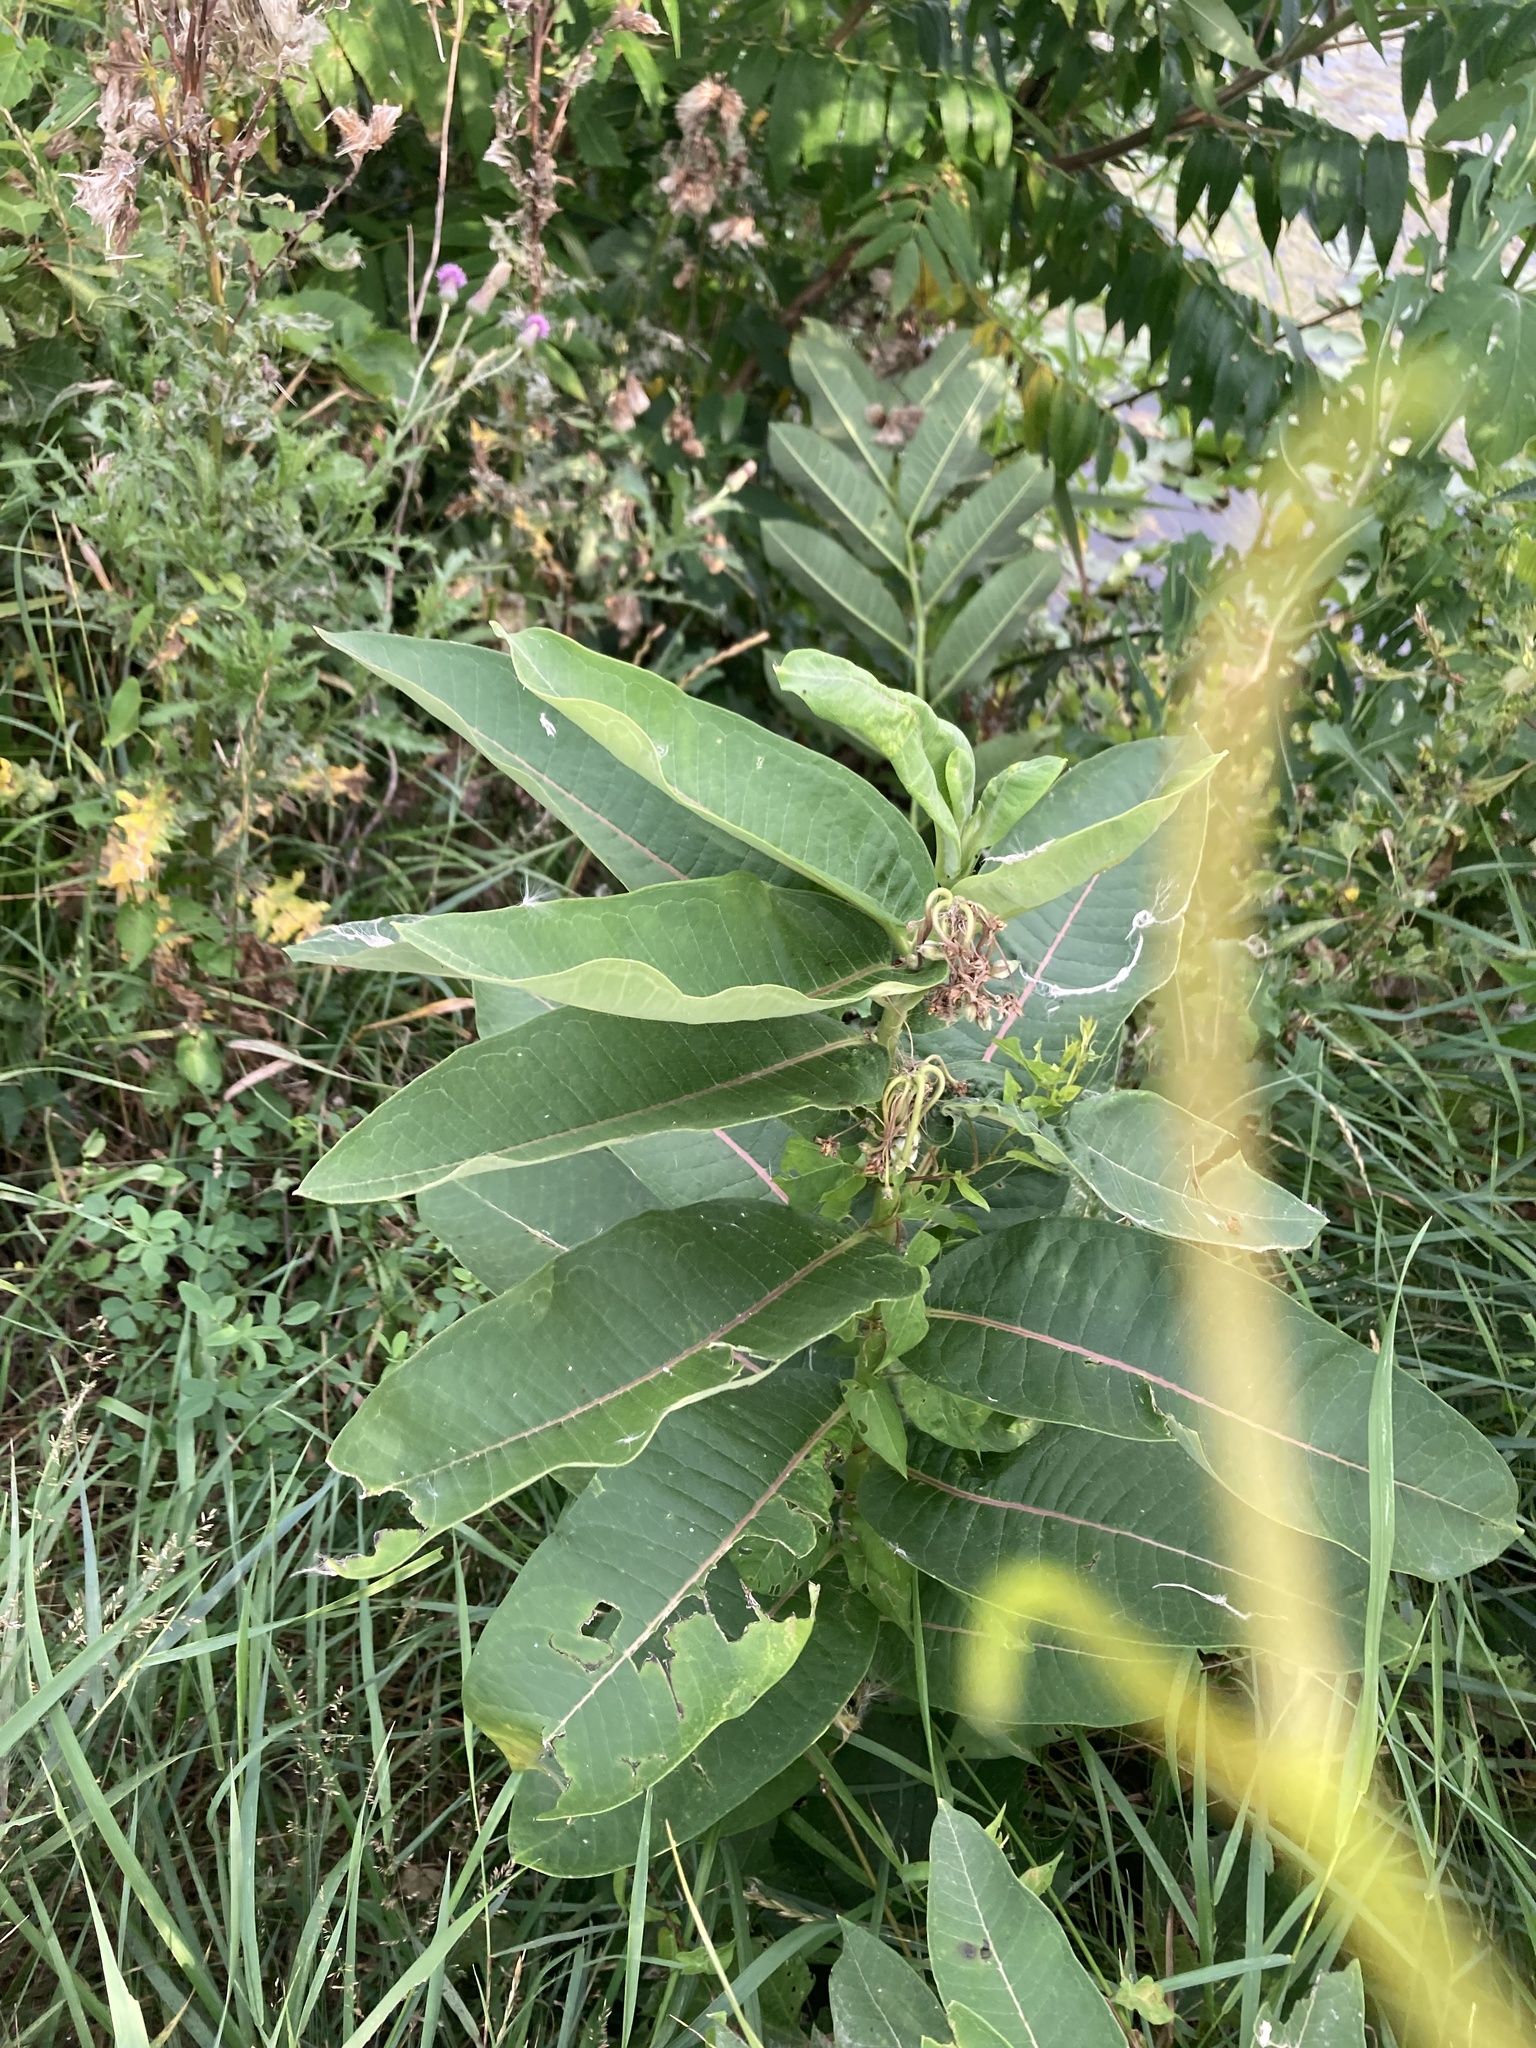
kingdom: Plantae
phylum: Tracheophyta
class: Magnoliopsida
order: Gentianales
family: Apocynaceae
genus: Asclepias
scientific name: Asclepias syriaca
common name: Common milkweed
